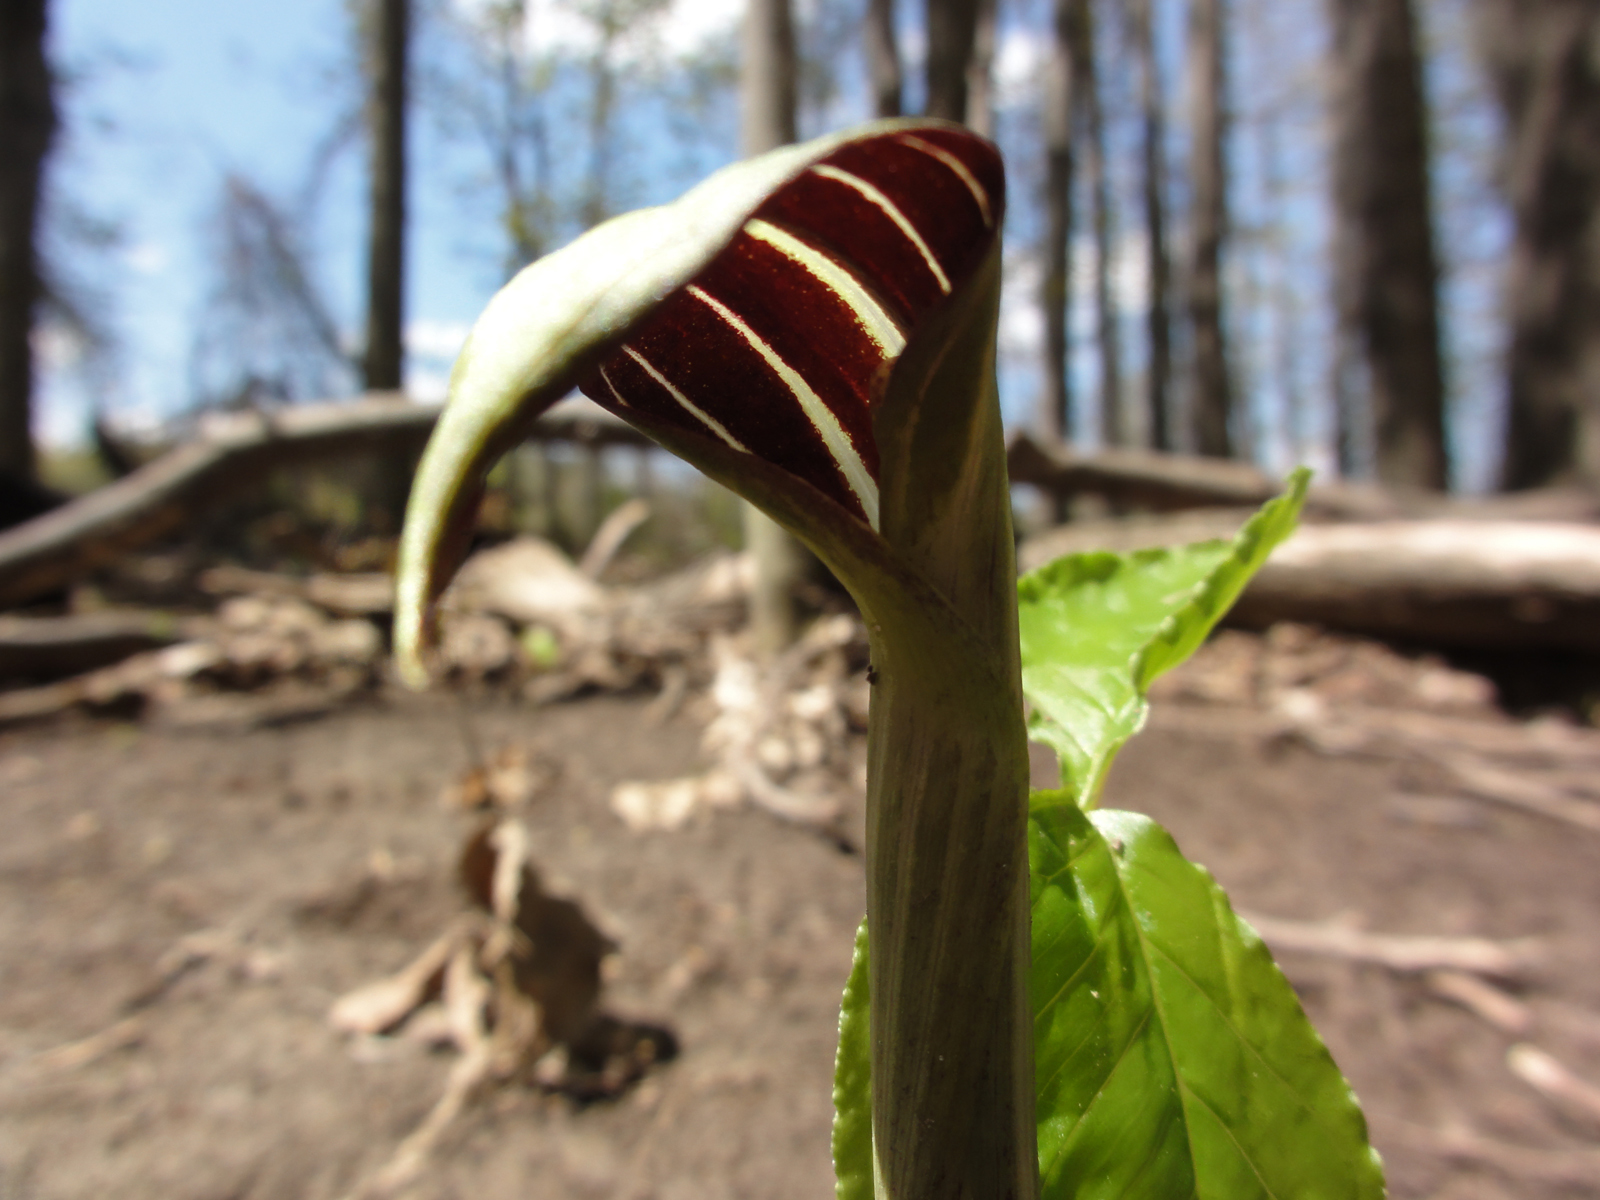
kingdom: Plantae
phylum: Tracheophyta
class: Liliopsida
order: Alismatales
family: Araceae
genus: Arisaema
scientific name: Arisaema triphyllum
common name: Jack-in-the-pulpit
